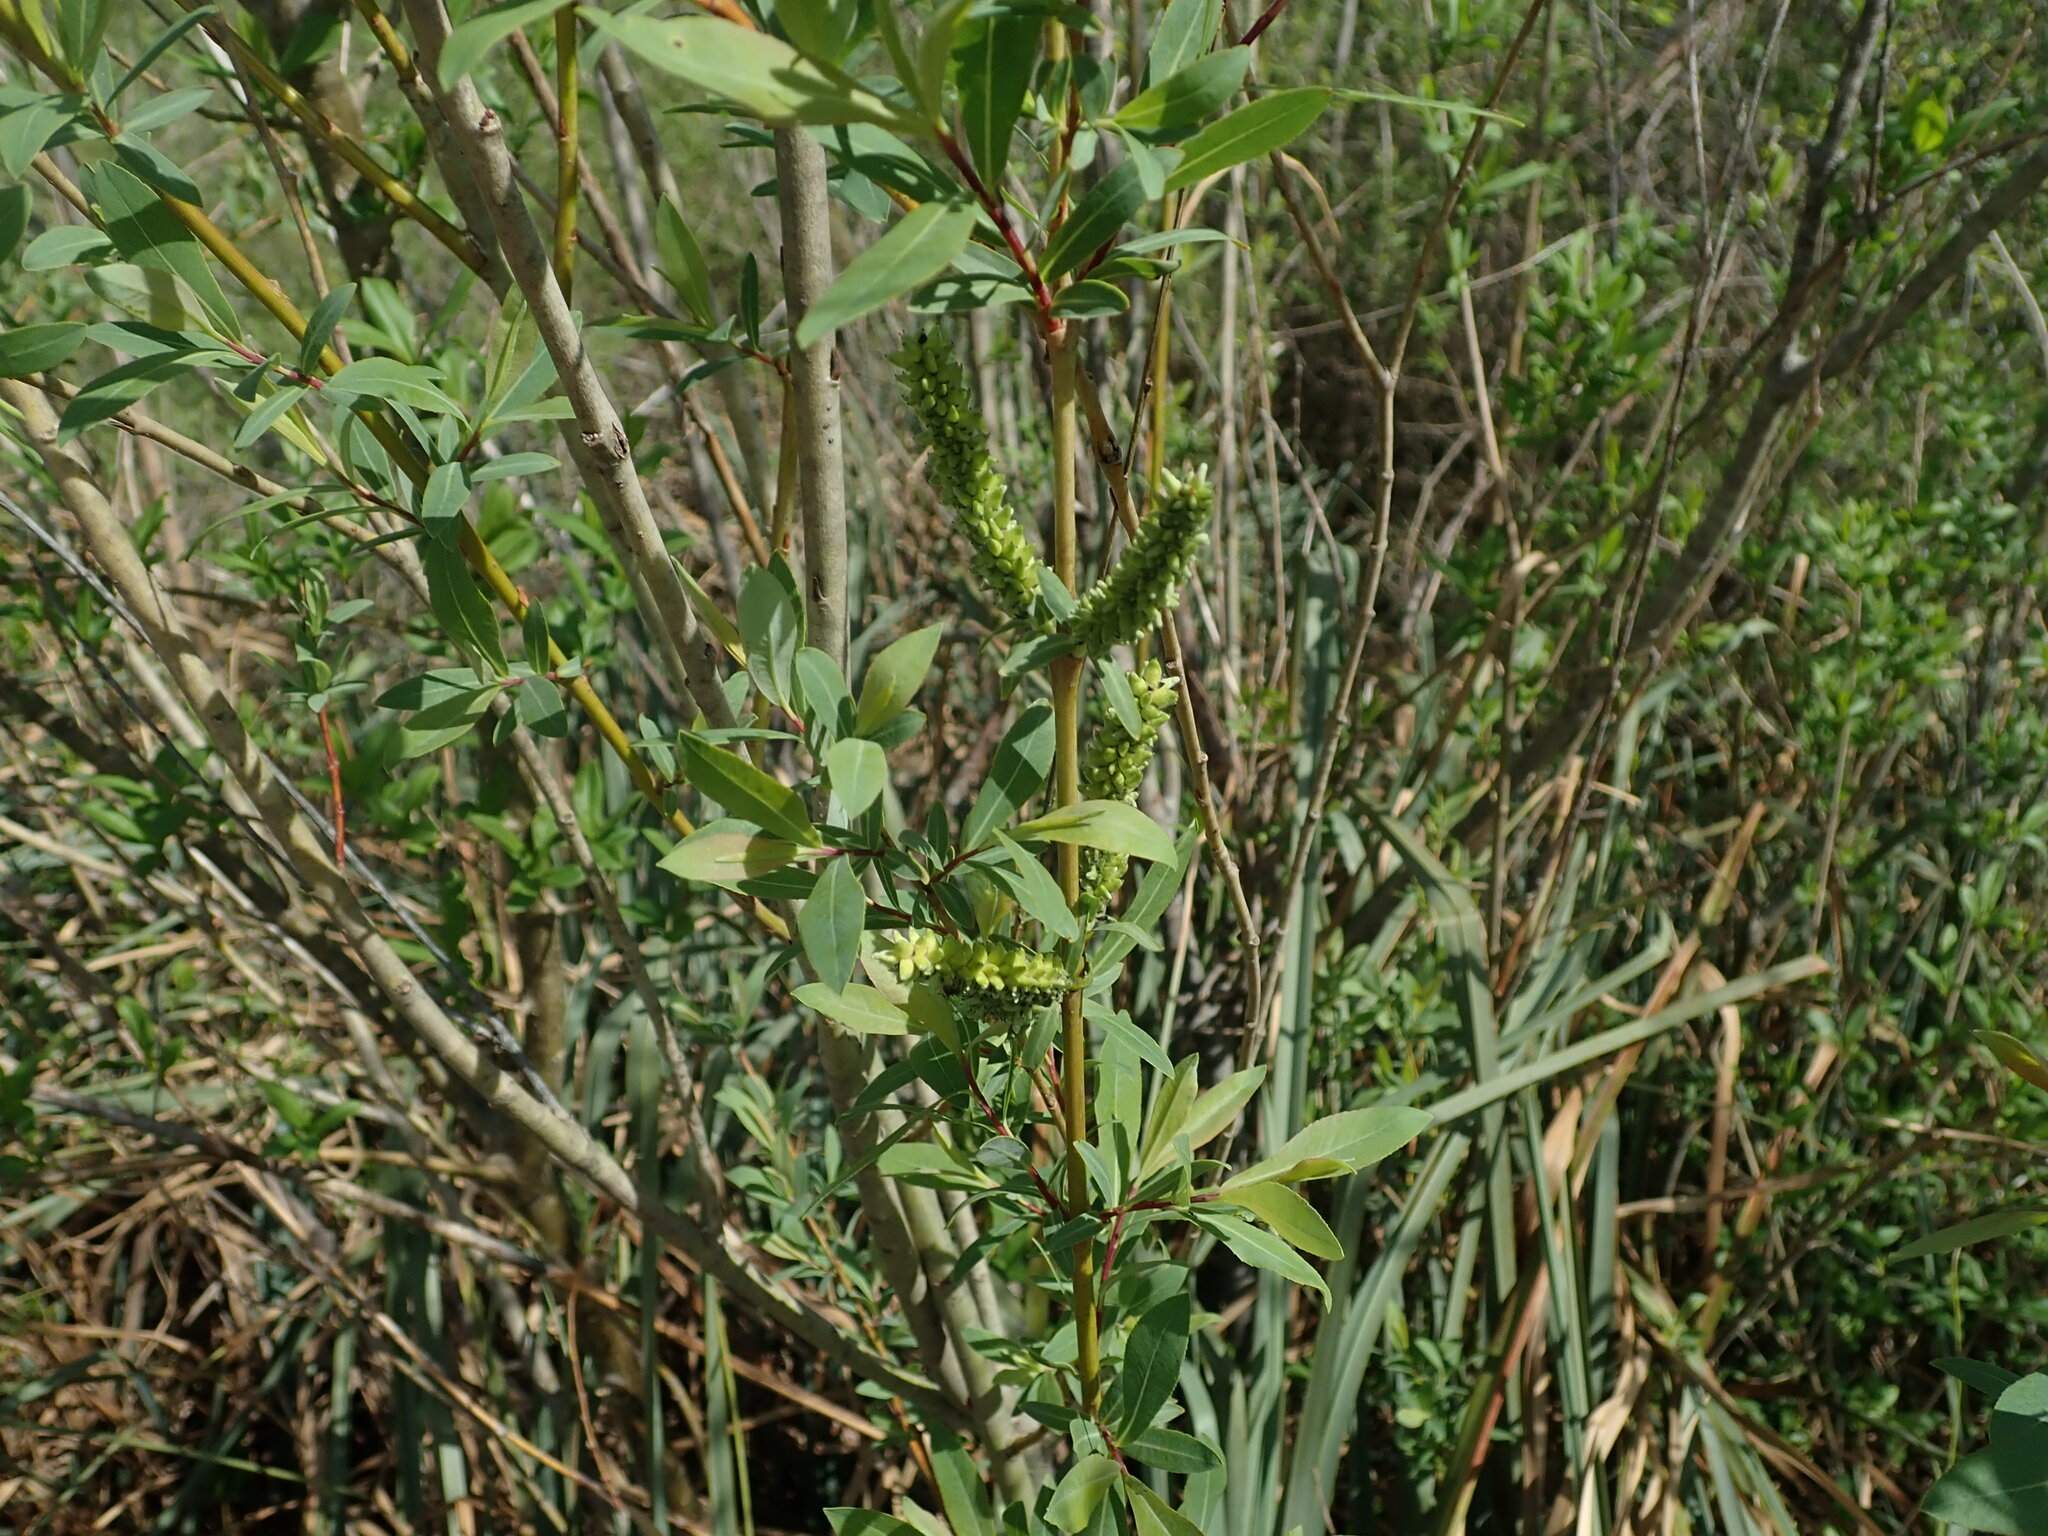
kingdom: Plantae
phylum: Tracheophyta
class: Magnoliopsida
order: Malpighiales
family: Salicaceae
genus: Salix
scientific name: Salix purpurea
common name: Purple willow
